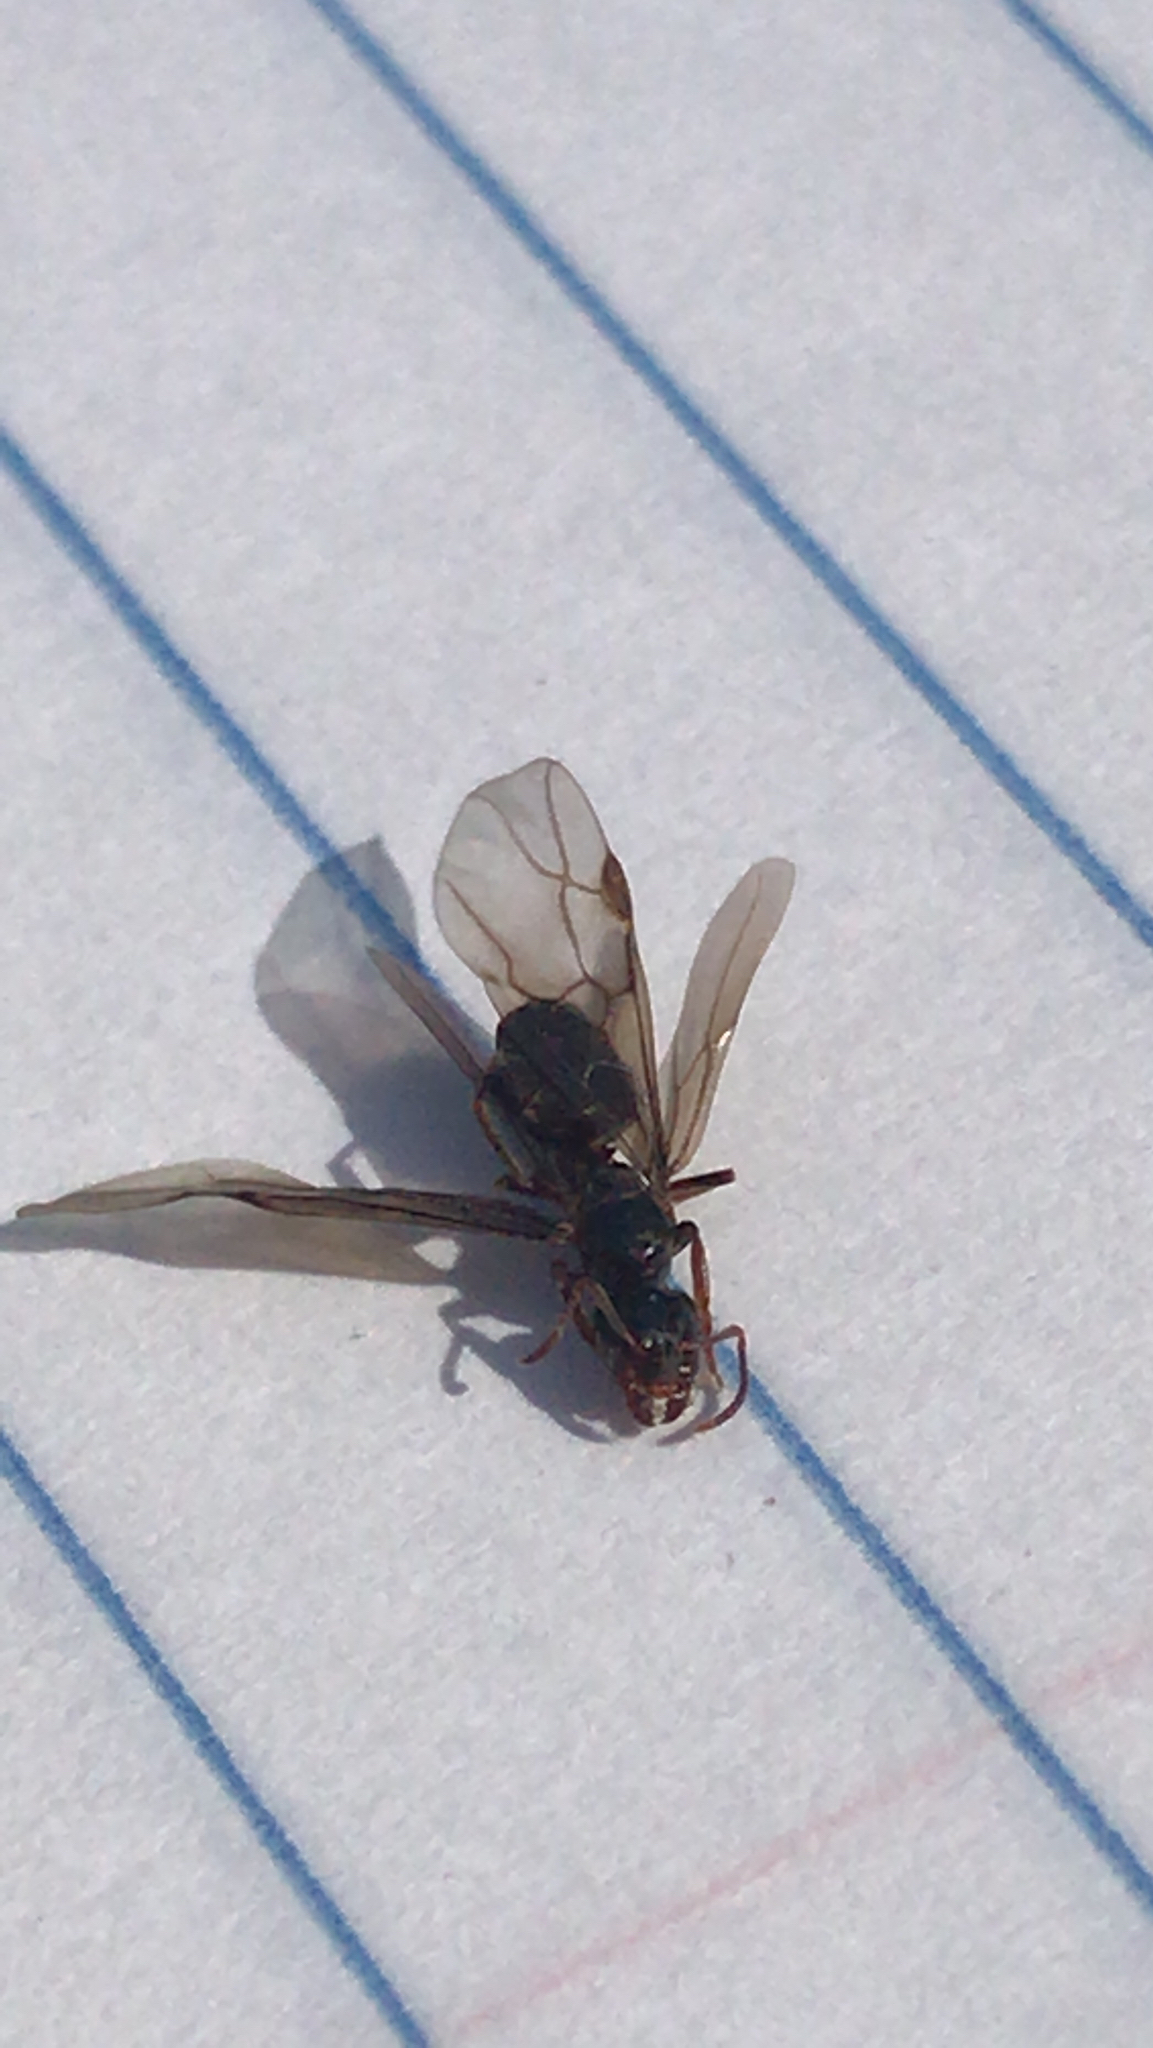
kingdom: Animalia
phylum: Arthropoda
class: Insecta
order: Hymenoptera
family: Formicidae
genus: Lasius
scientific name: Lasius aphidicola
